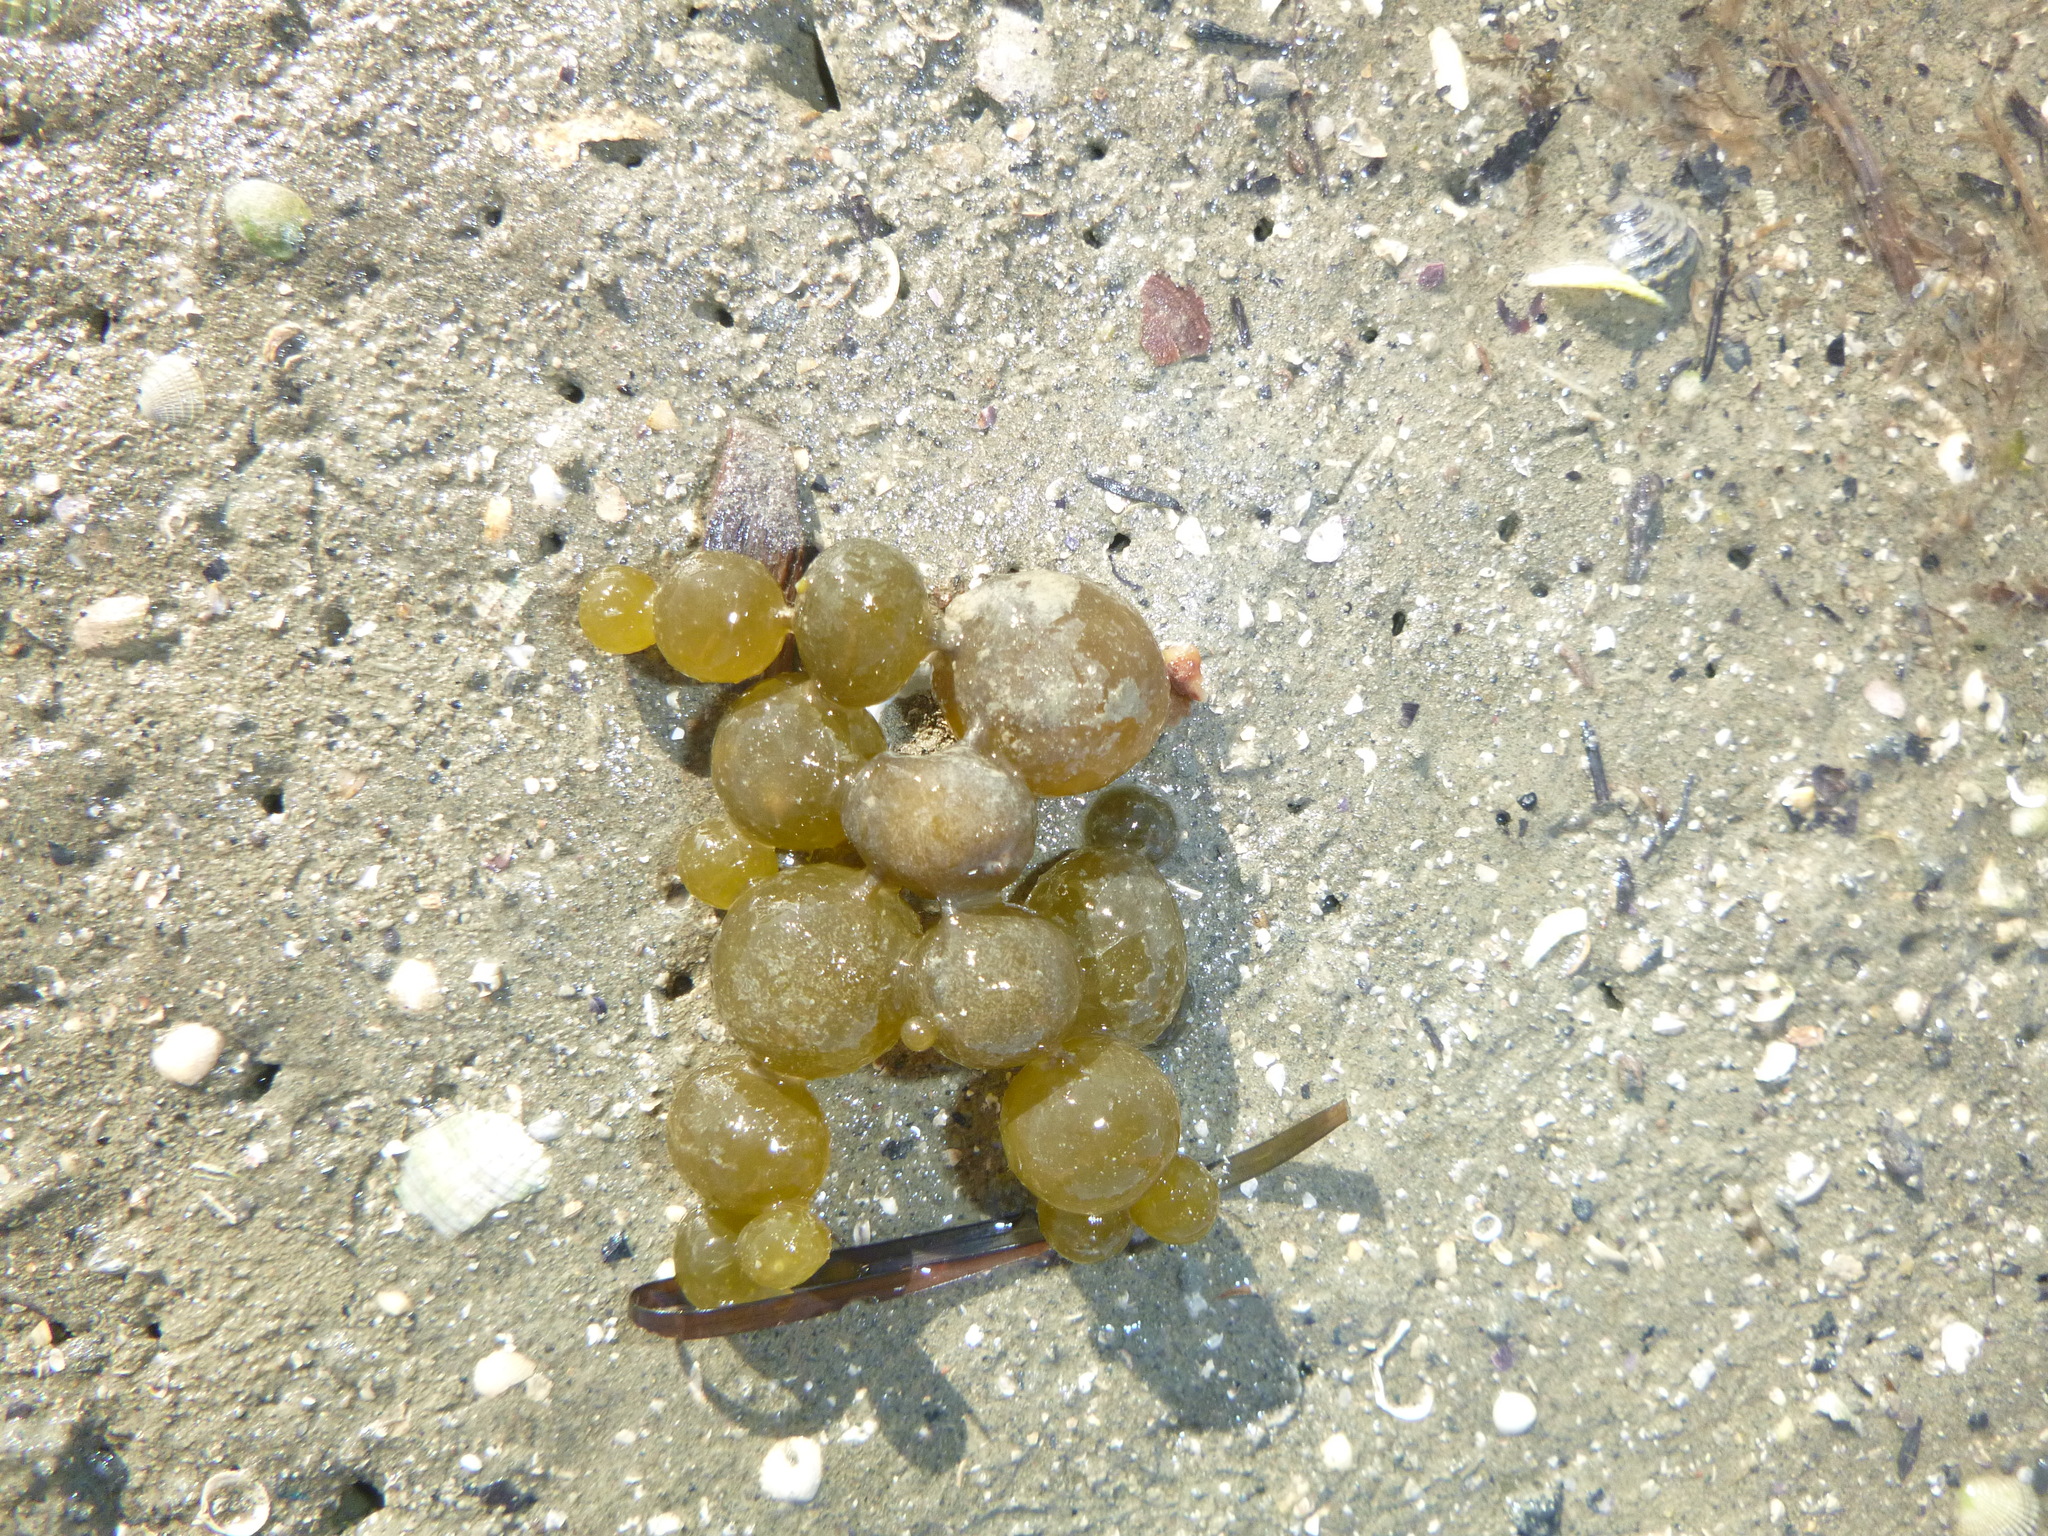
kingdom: Chromista
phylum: Ochrophyta
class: Phaeophyceae
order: Fucales
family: Hormosiraceae
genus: Hormosira
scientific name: Hormosira banksii
